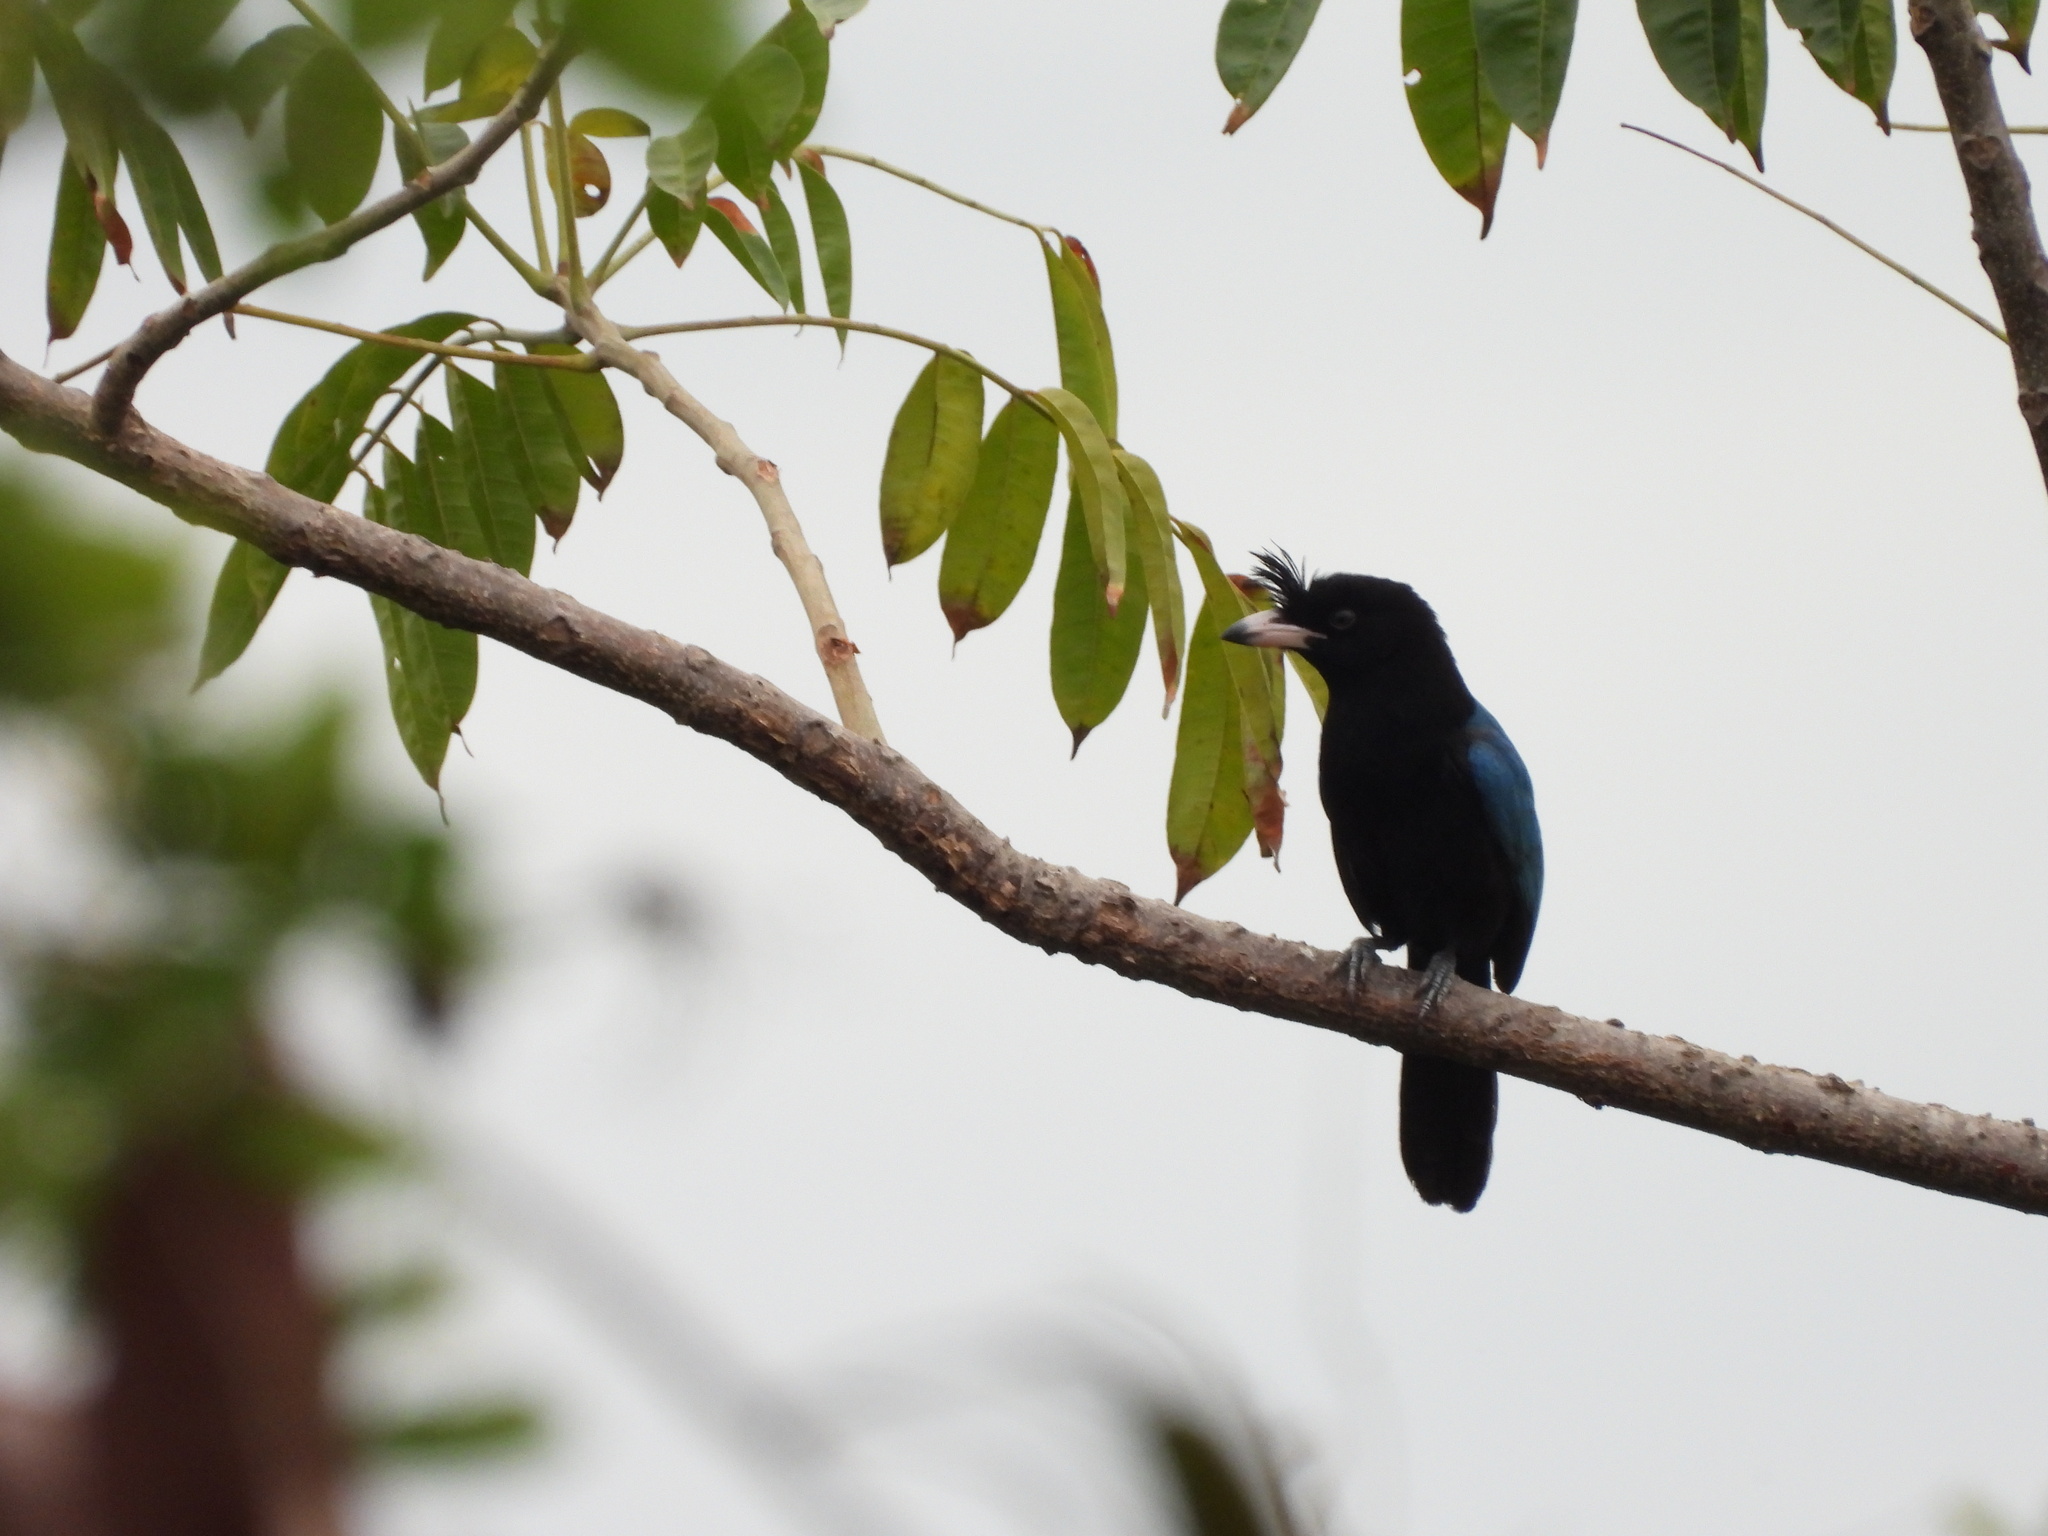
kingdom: Animalia
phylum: Chordata
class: Aves
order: Passeriformes
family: Corvidae
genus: Cyanocorax
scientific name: Cyanocorax sanblasianus
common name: San blas jay
